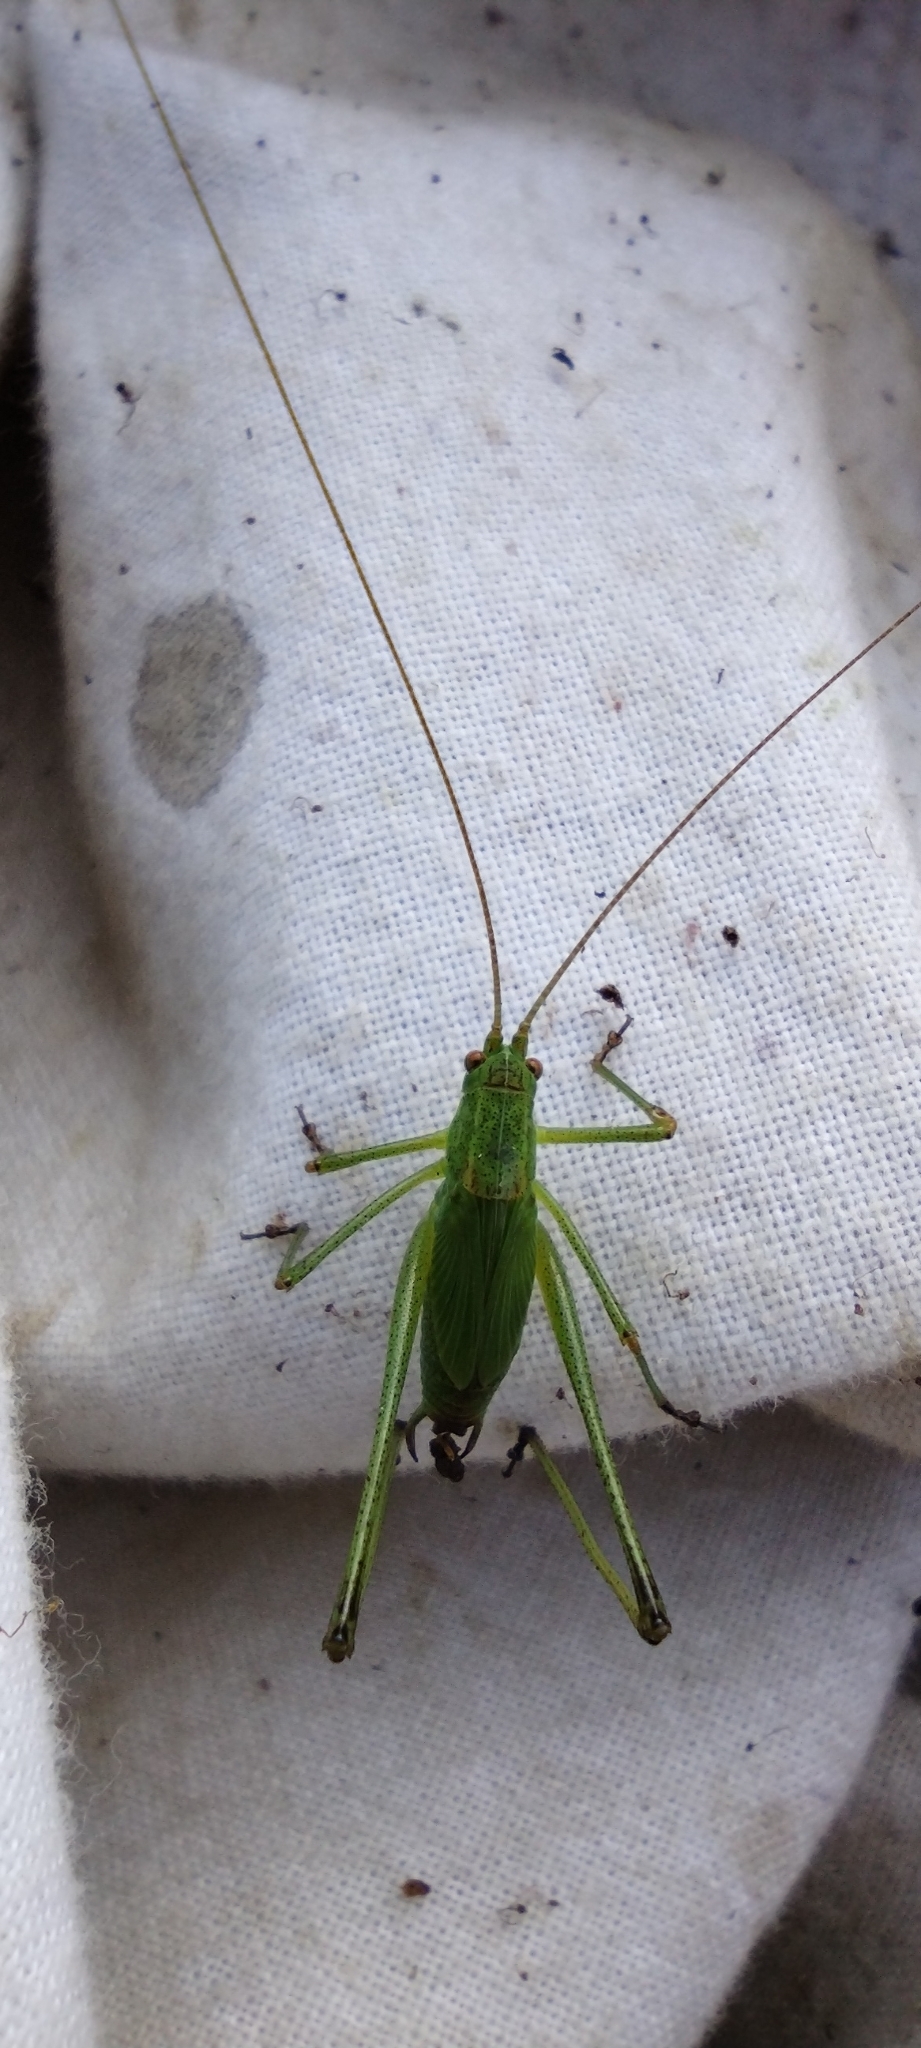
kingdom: Animalia
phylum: Arthropoda
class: Insecta
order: Orthoptera
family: Tettigoniidae
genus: Phaneroptera
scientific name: Phaneroptera falcata
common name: Sickle-bearing bush-cricket
